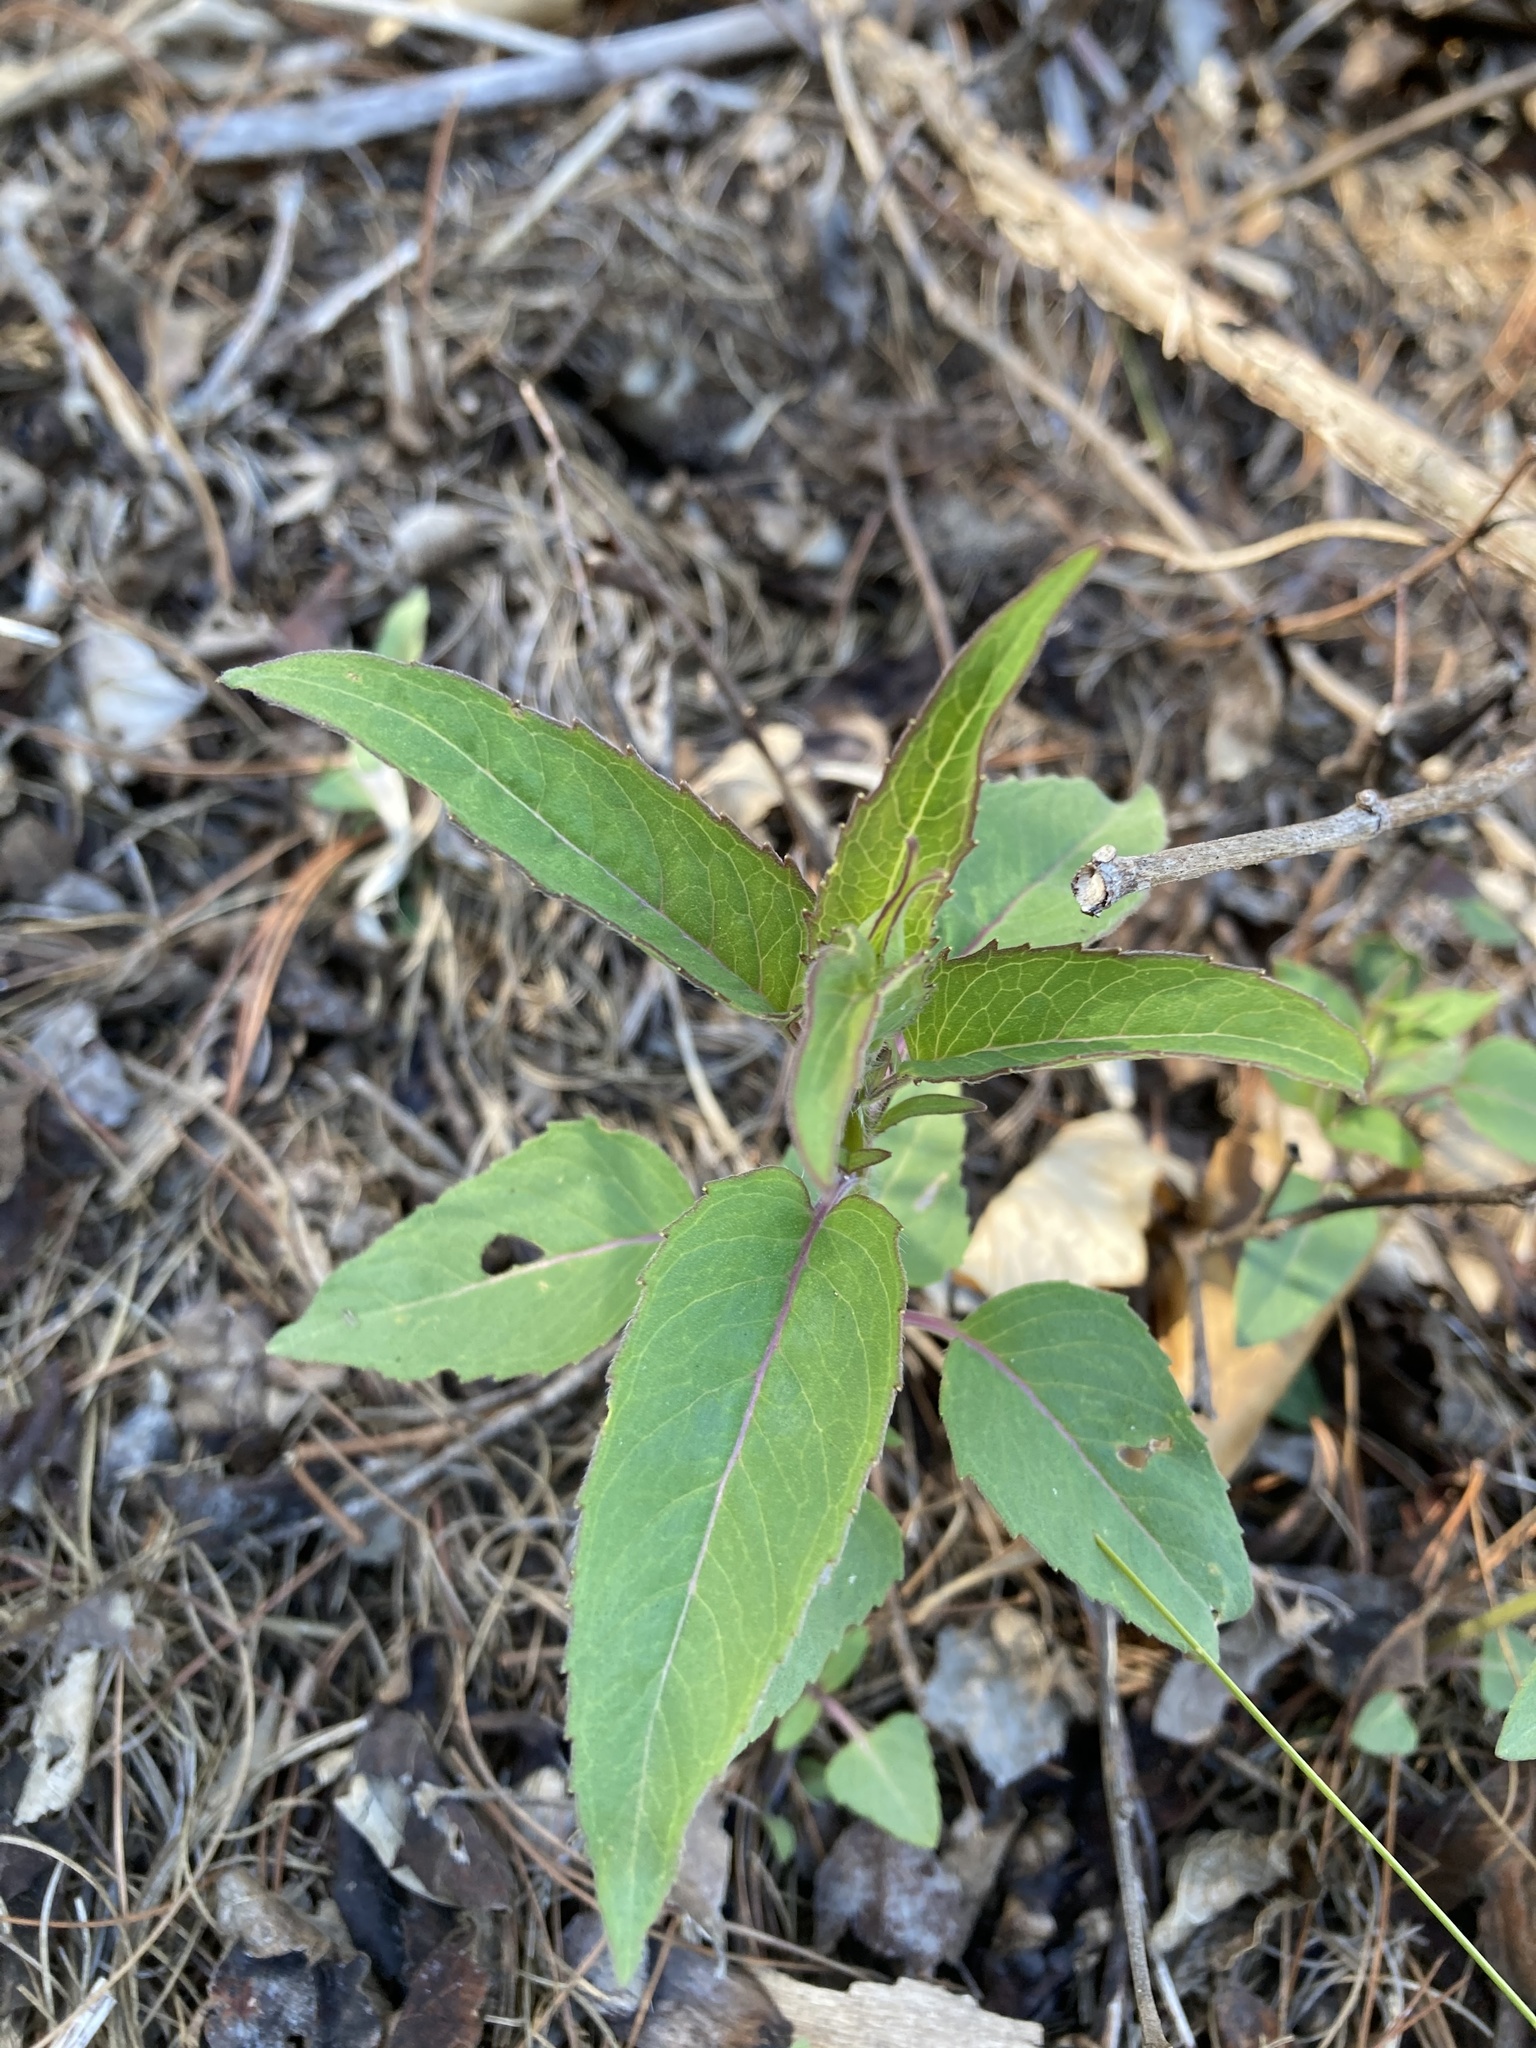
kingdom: Plantae
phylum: Tracheophyta
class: Magnoliopsida
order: Lamiales
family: Lamiaceae
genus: Monarda
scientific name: Monarda fistulosa
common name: Purple beebalm
